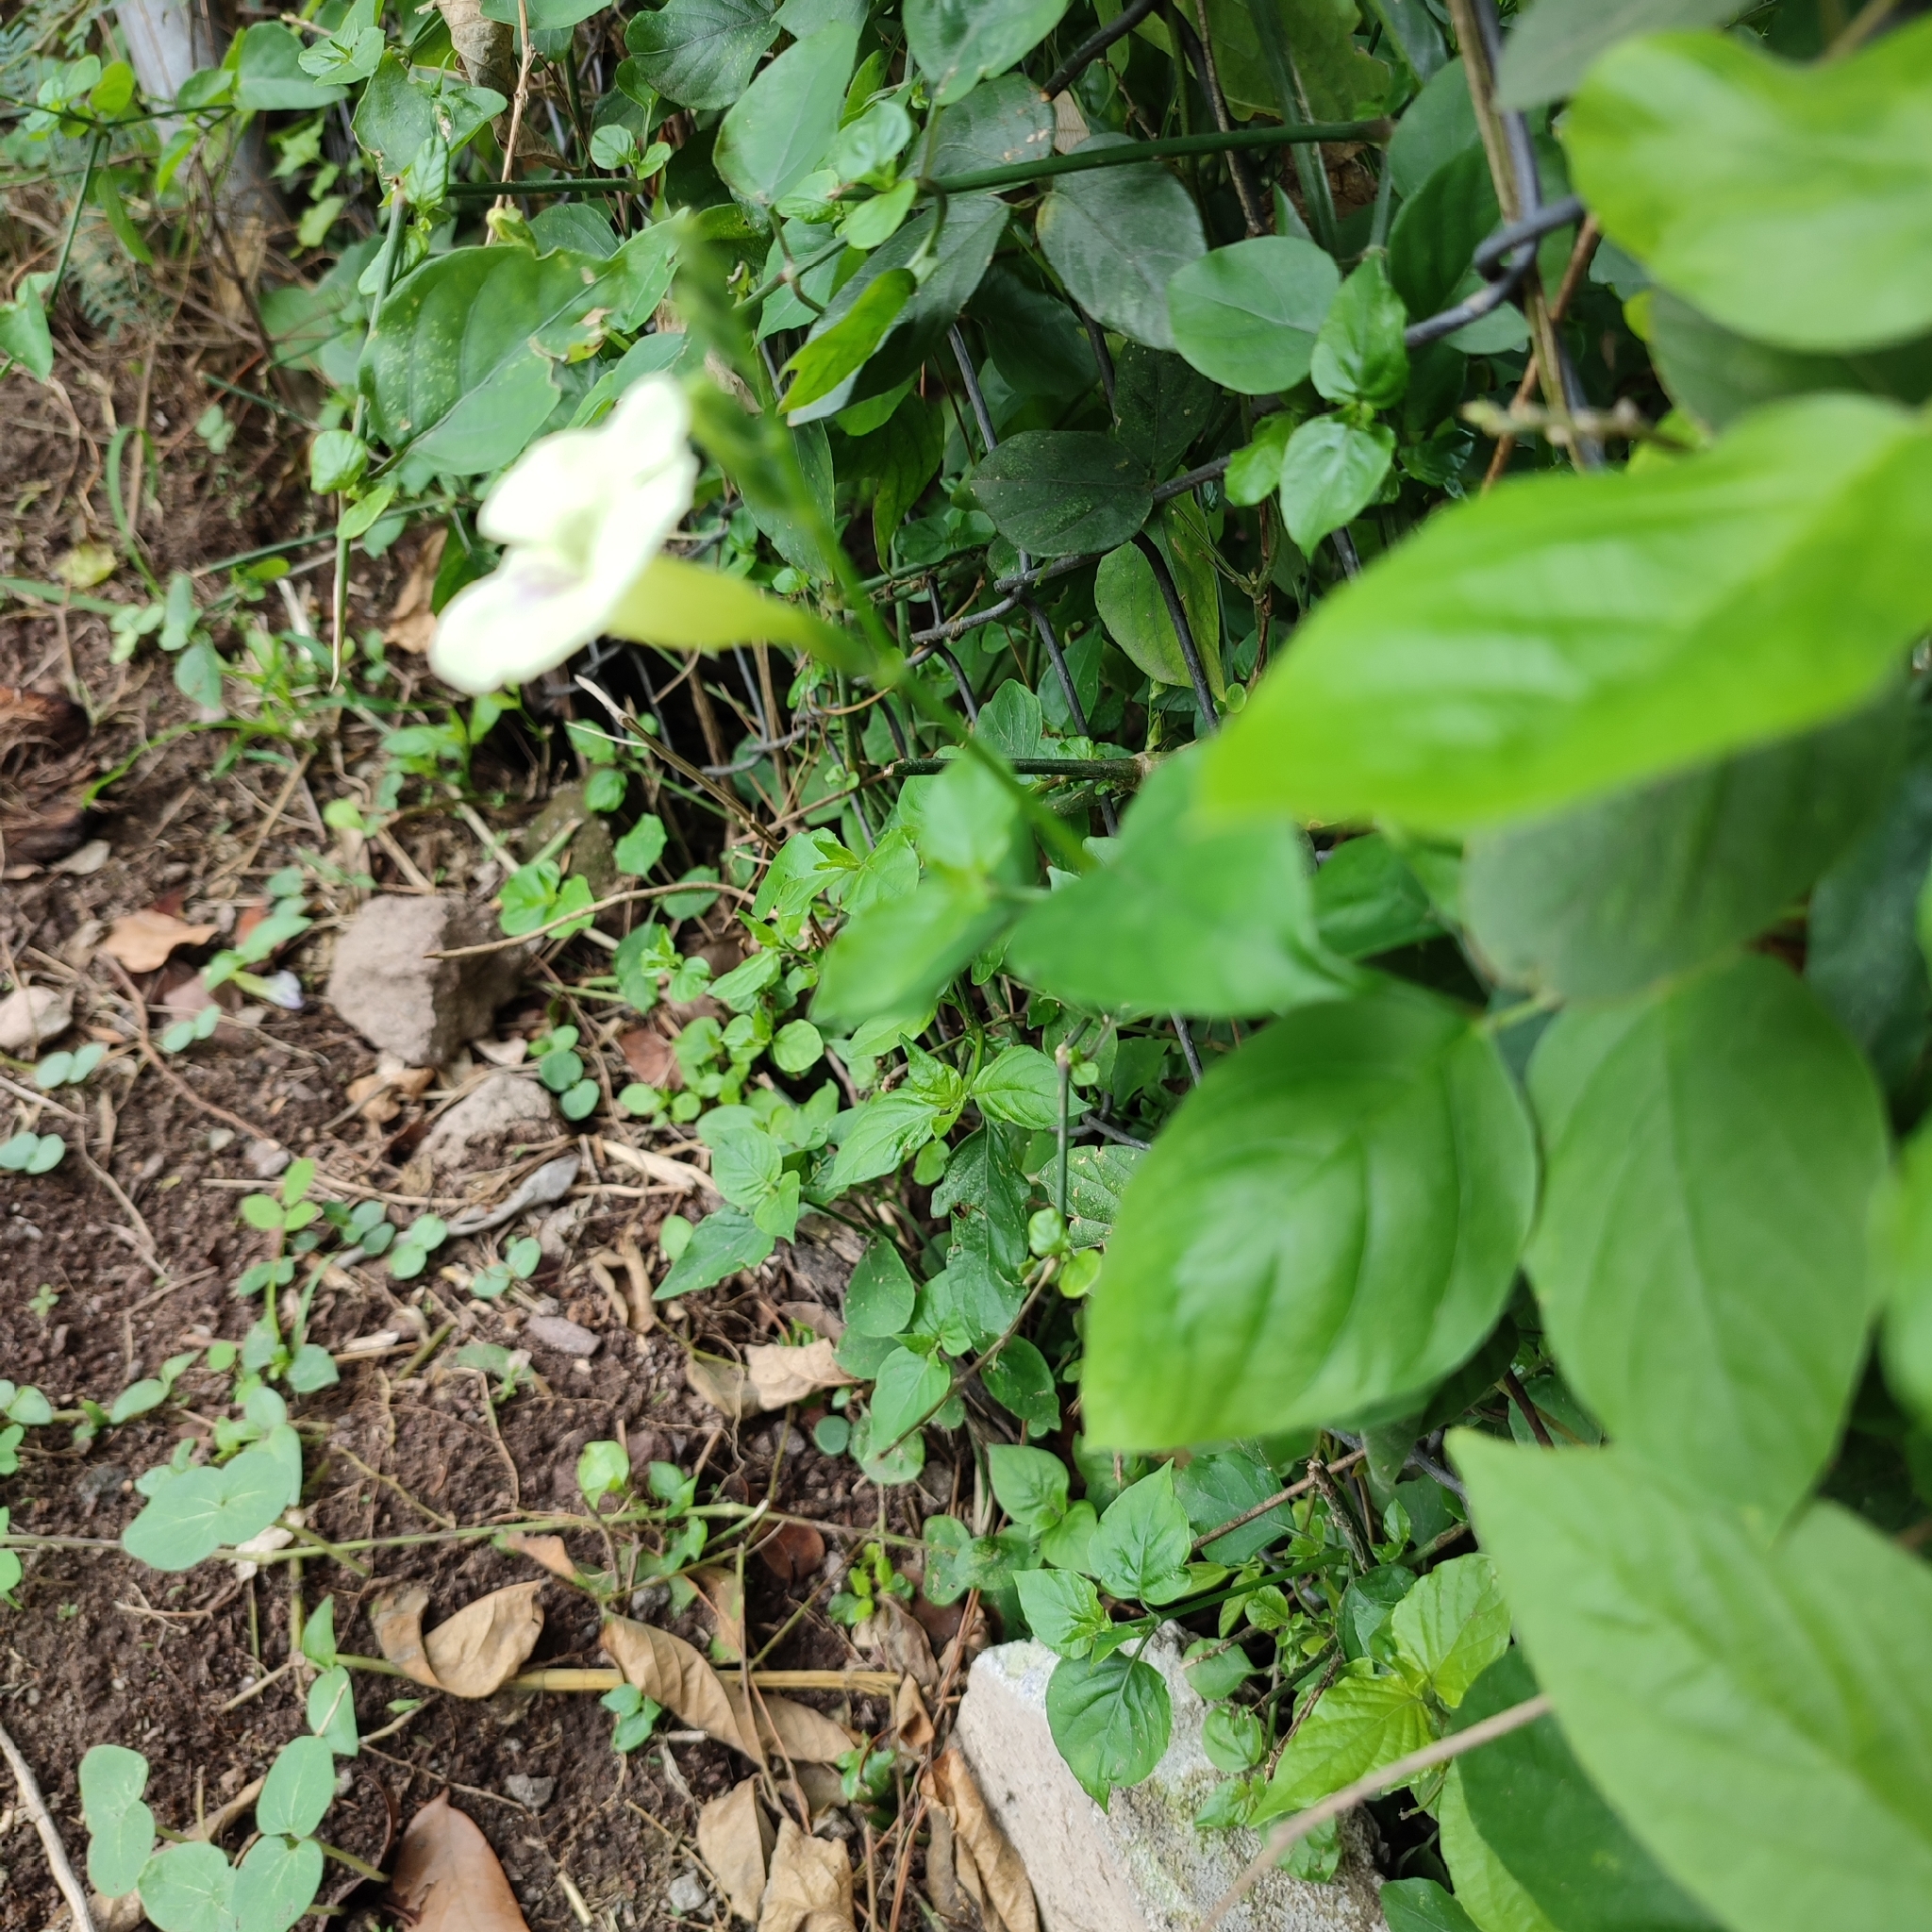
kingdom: Plantae
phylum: Tracheophyta
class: Magnoliopsida
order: Lamiales
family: Acanthaceae
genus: Asystasia
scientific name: Asystasia gangetica
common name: Chinese violet
